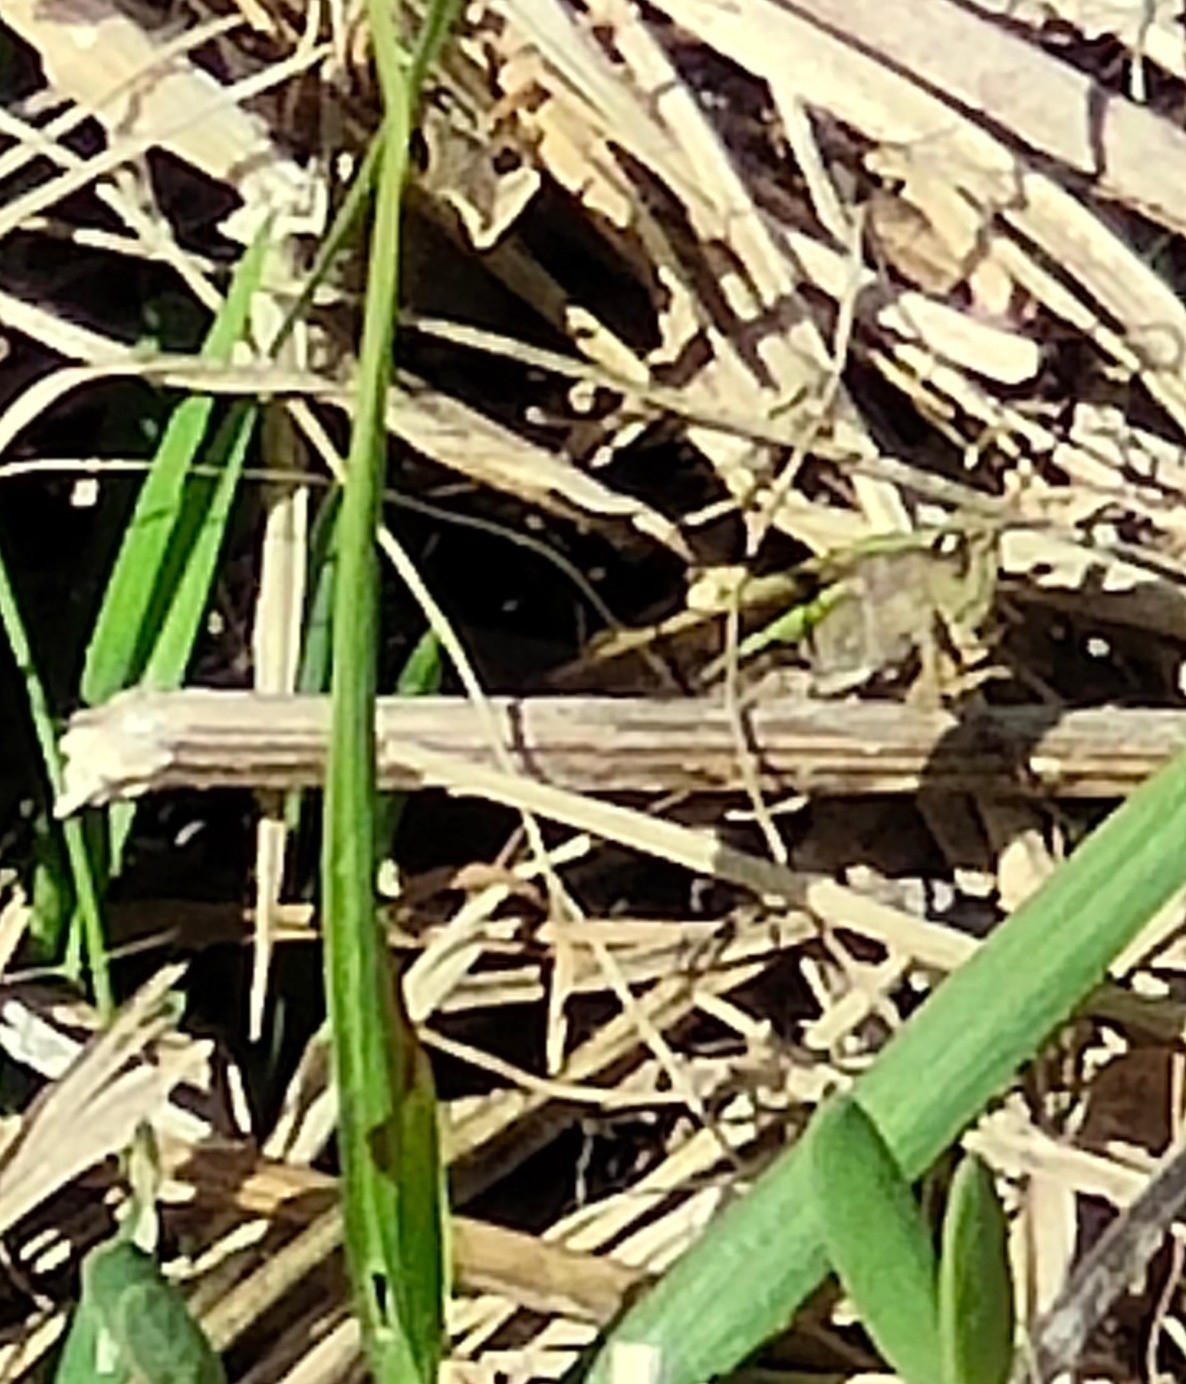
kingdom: Animalia
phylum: Arthropoda
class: Insecta
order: Orthoptera
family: Acrididae
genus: Schizobothrus
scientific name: Schizobothrus flavovittatus
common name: Disappearing grasshopper
